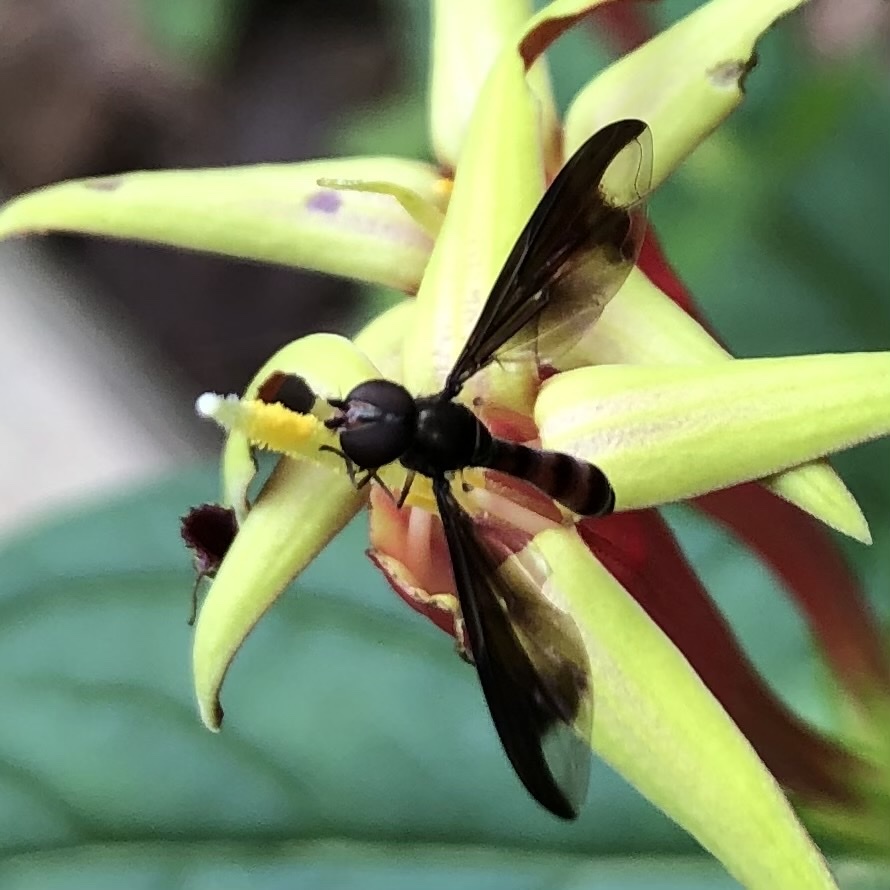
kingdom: Animalia
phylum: Arthropoda
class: Insecta
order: Diptera
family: Syrphidae
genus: Ocyptamus
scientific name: Ocyptamus fuscipennis
